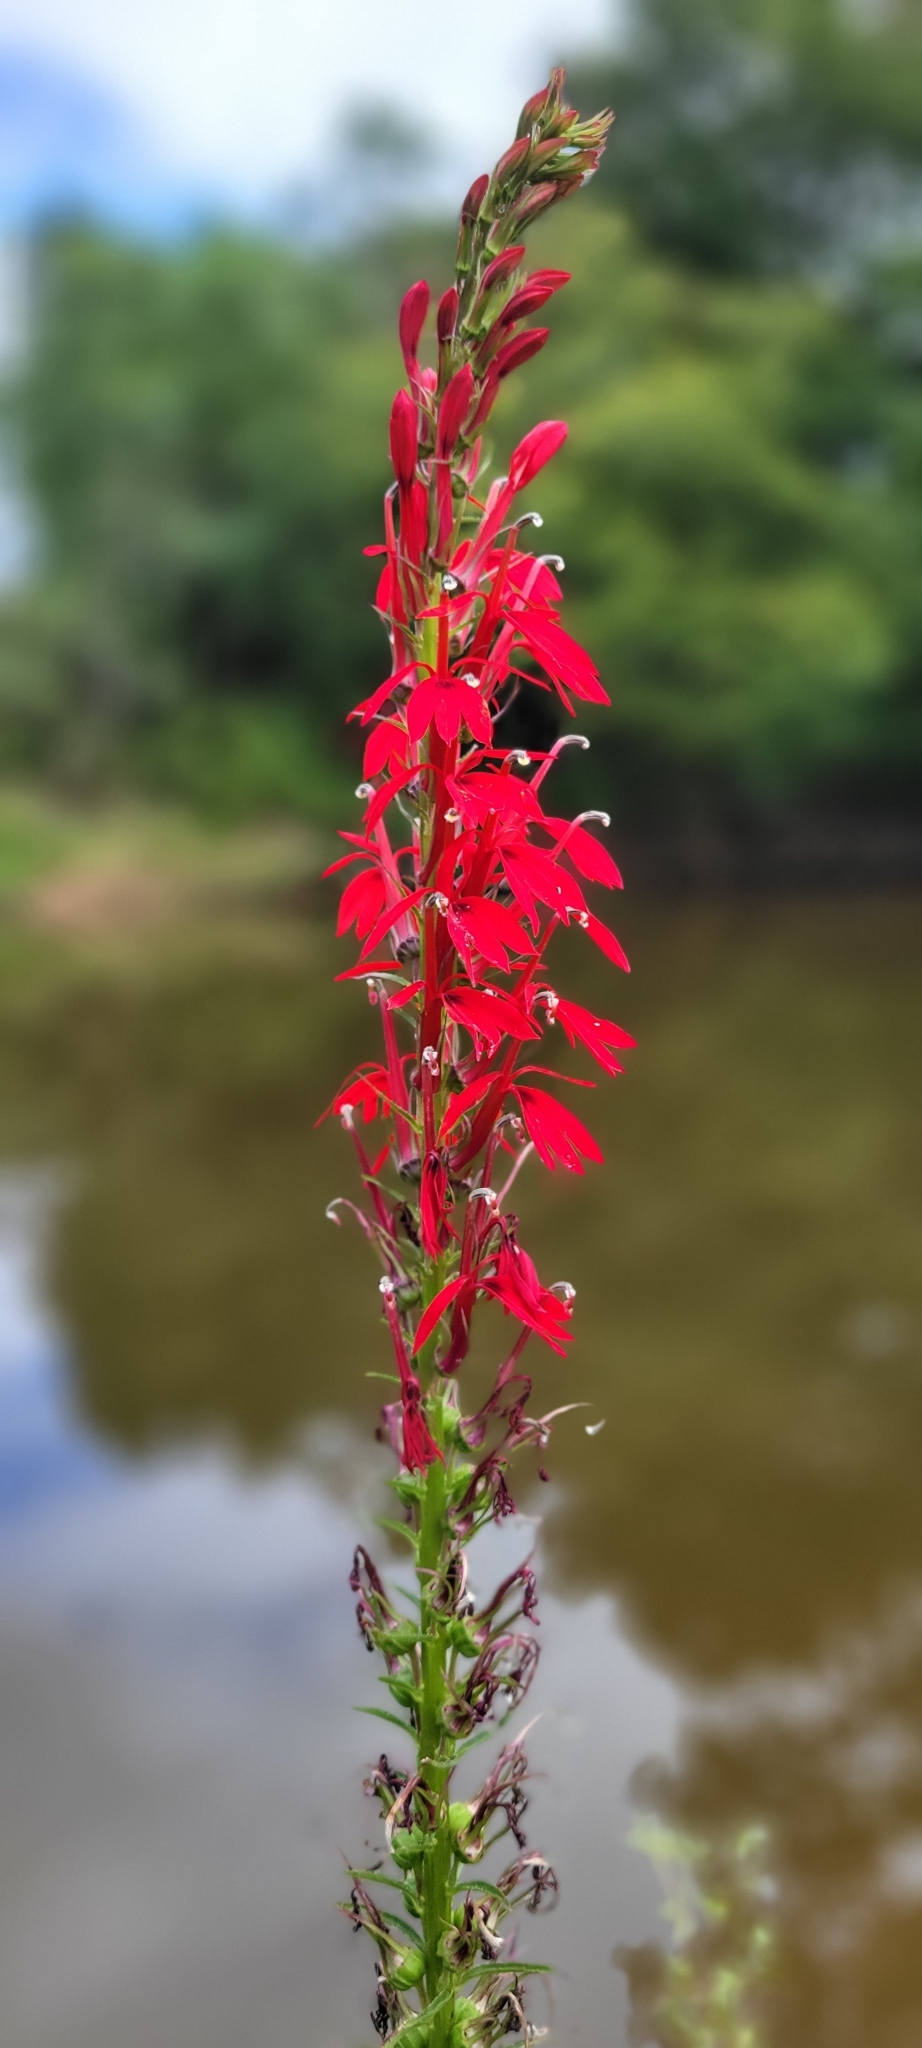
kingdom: Plantae
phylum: Tracheophyta
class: Magnoliopsida
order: Asterales
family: Campanulaceae
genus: Lobelia
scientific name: Lobelia cardinalis
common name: Cardinal flower
